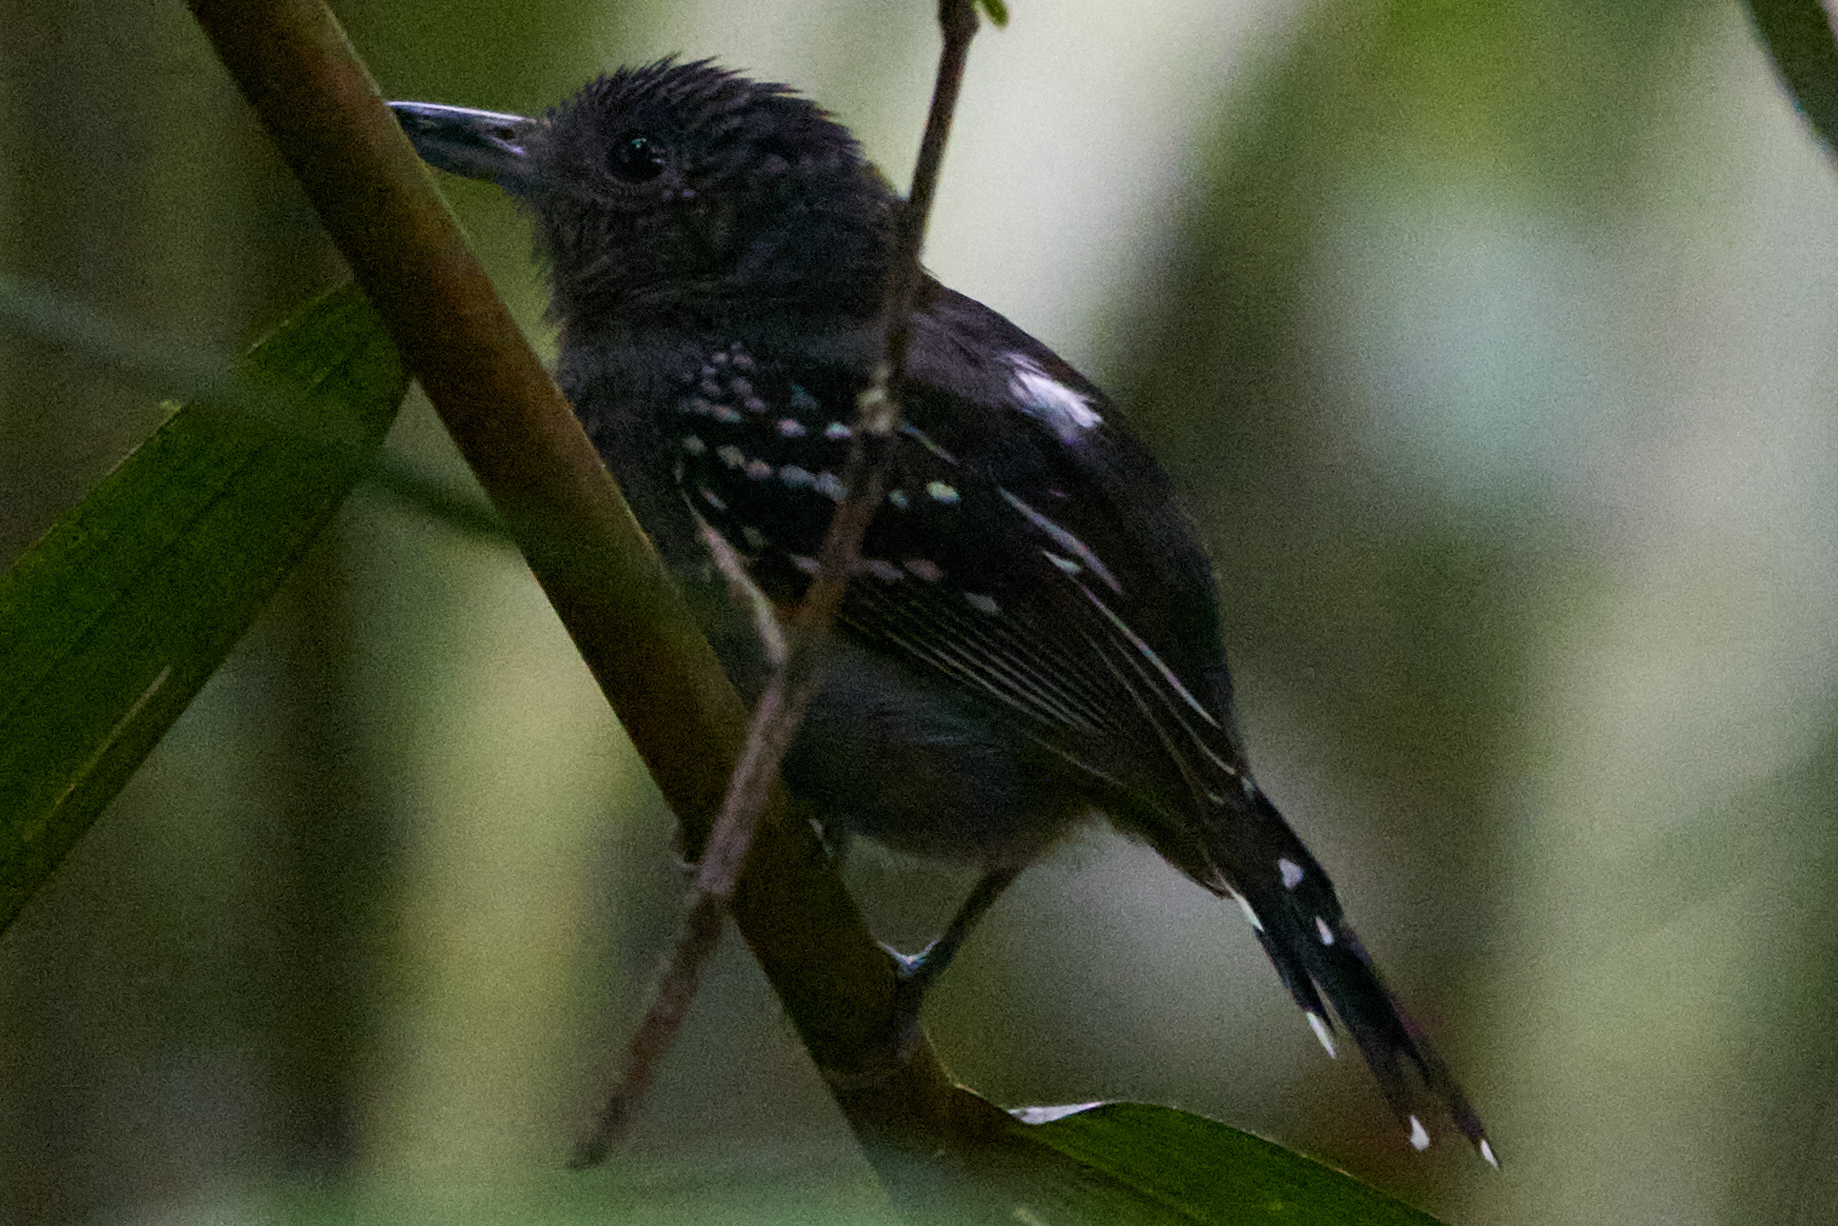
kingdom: Animalia
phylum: Chordata
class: Aves
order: Passeriformes
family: Thamnophilidae
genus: Thamnophilus
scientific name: Thamnophilus atrinucha
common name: Black-crowned antshrike
